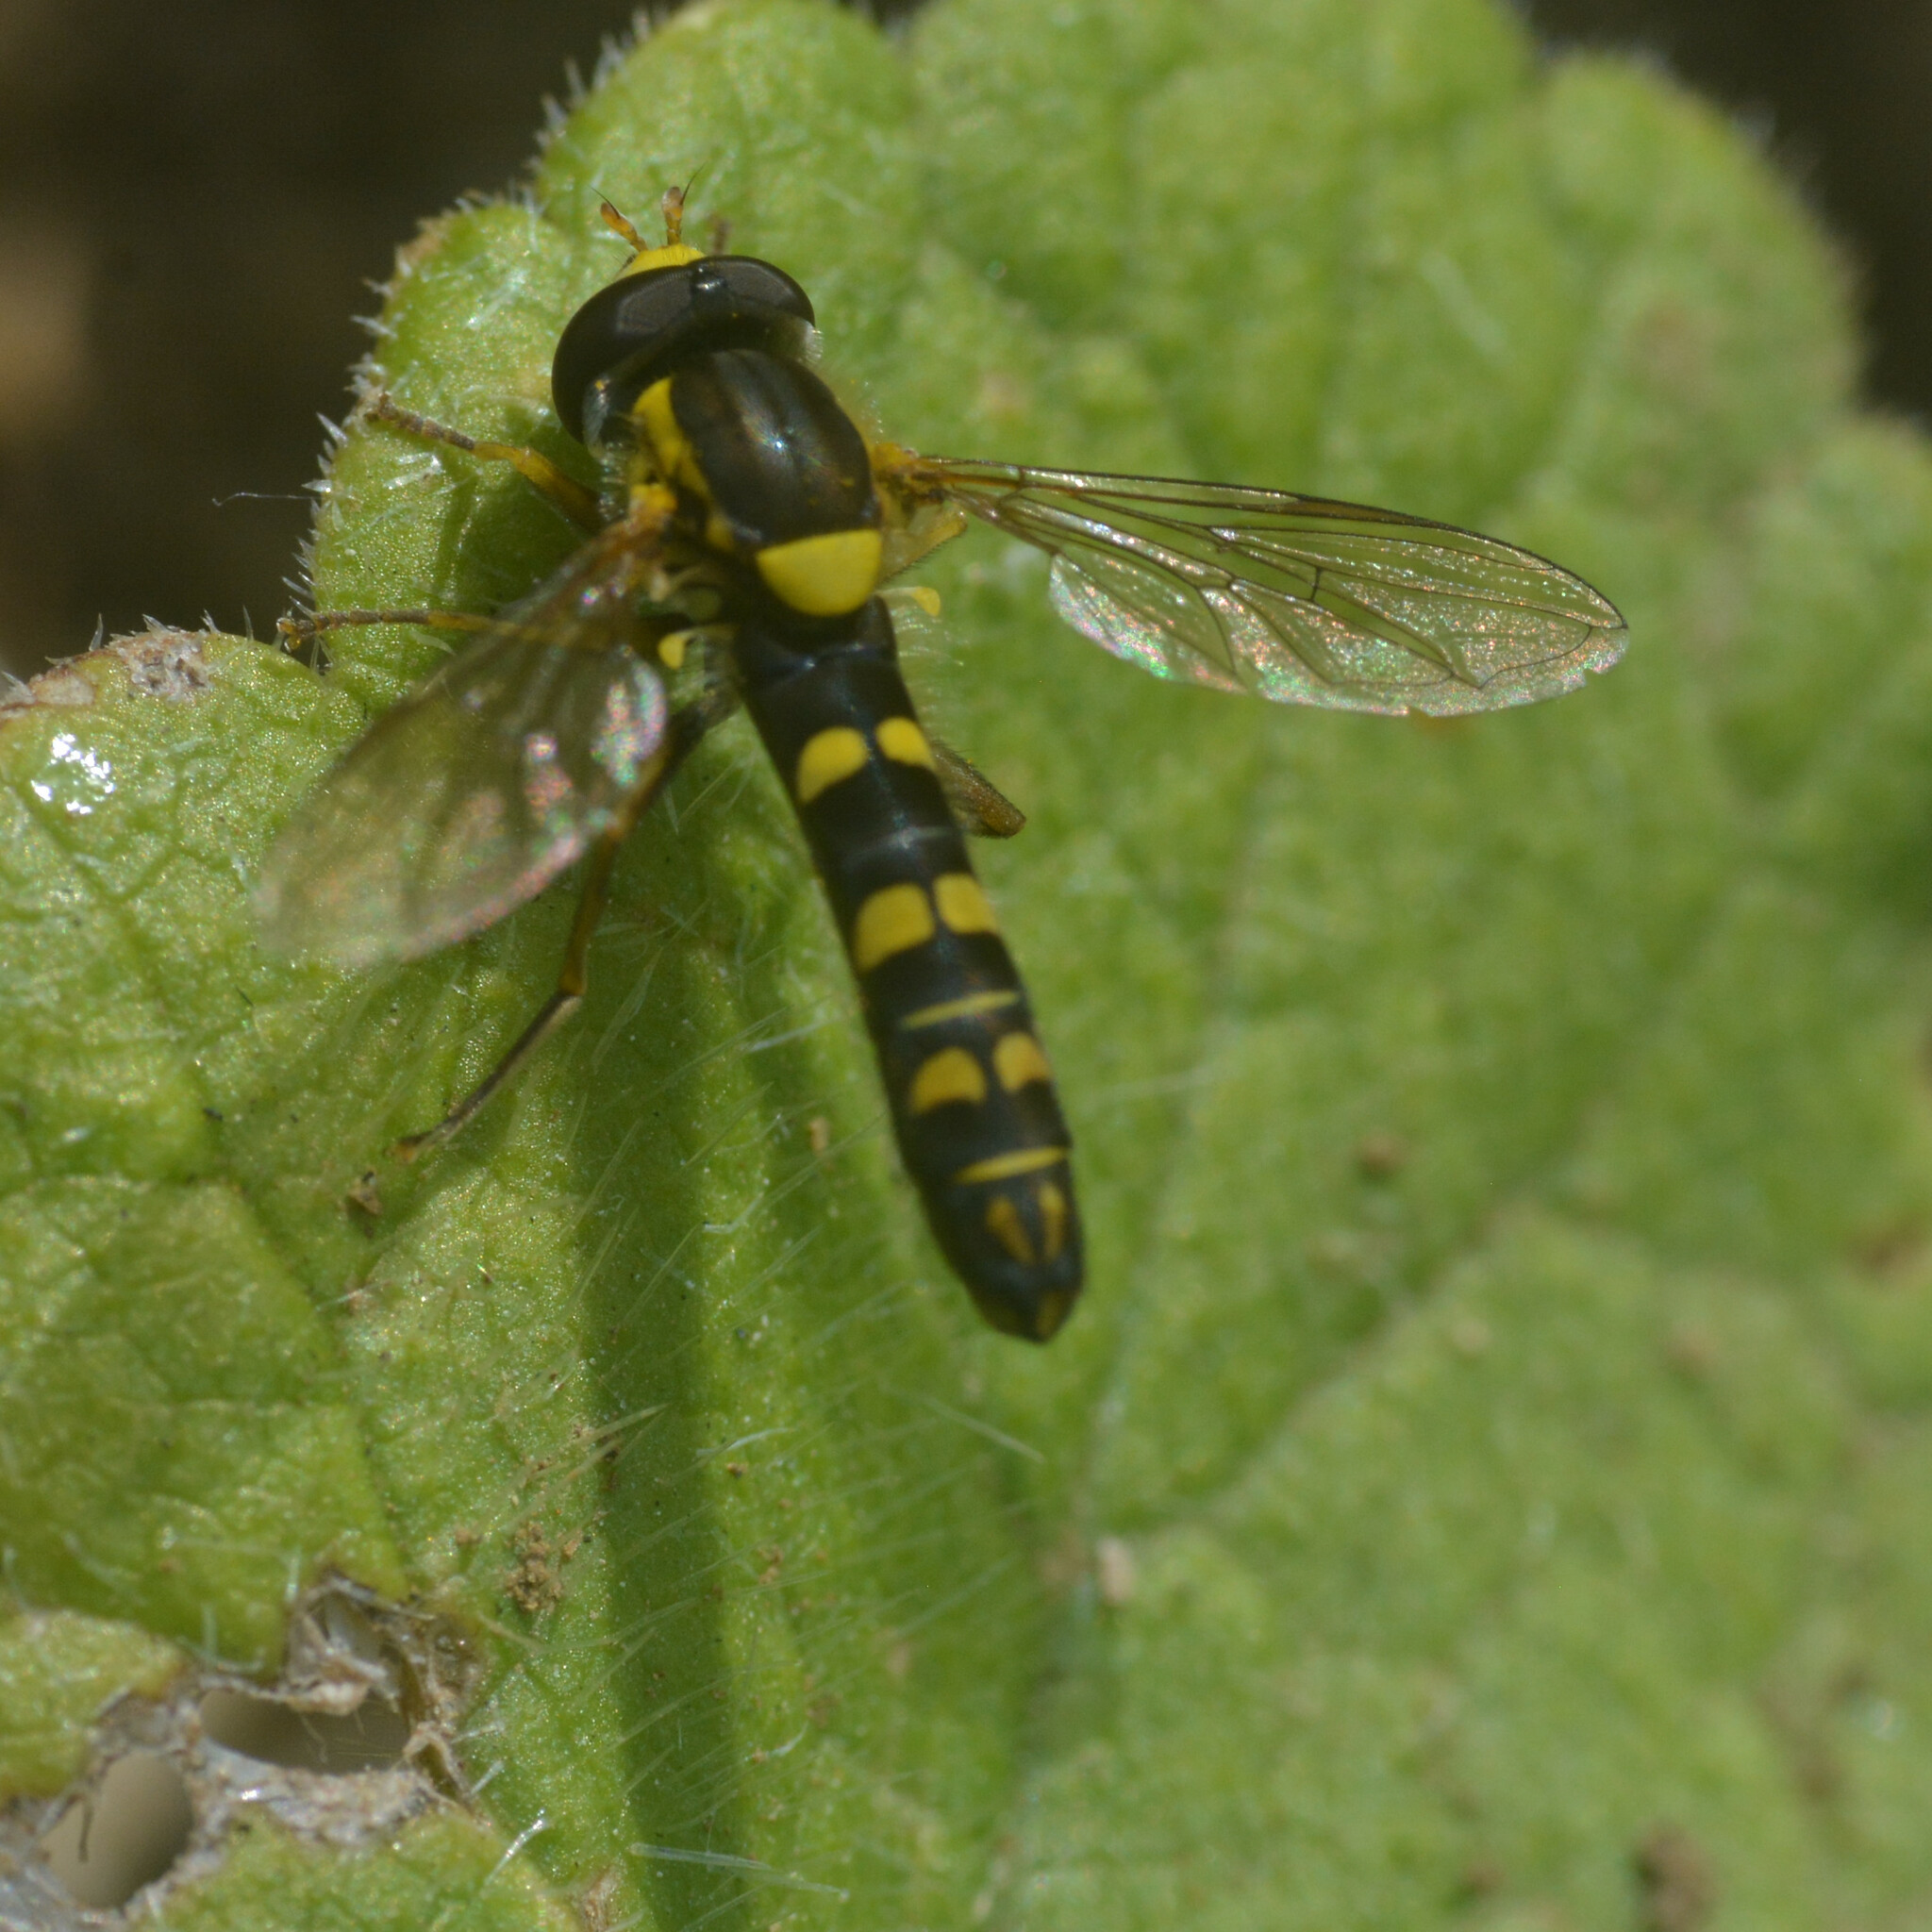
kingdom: Animalia
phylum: Arthropoda
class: Insecta
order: Diptera
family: Syrphidae
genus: Sphaerophoria
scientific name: Sphaerophoria
